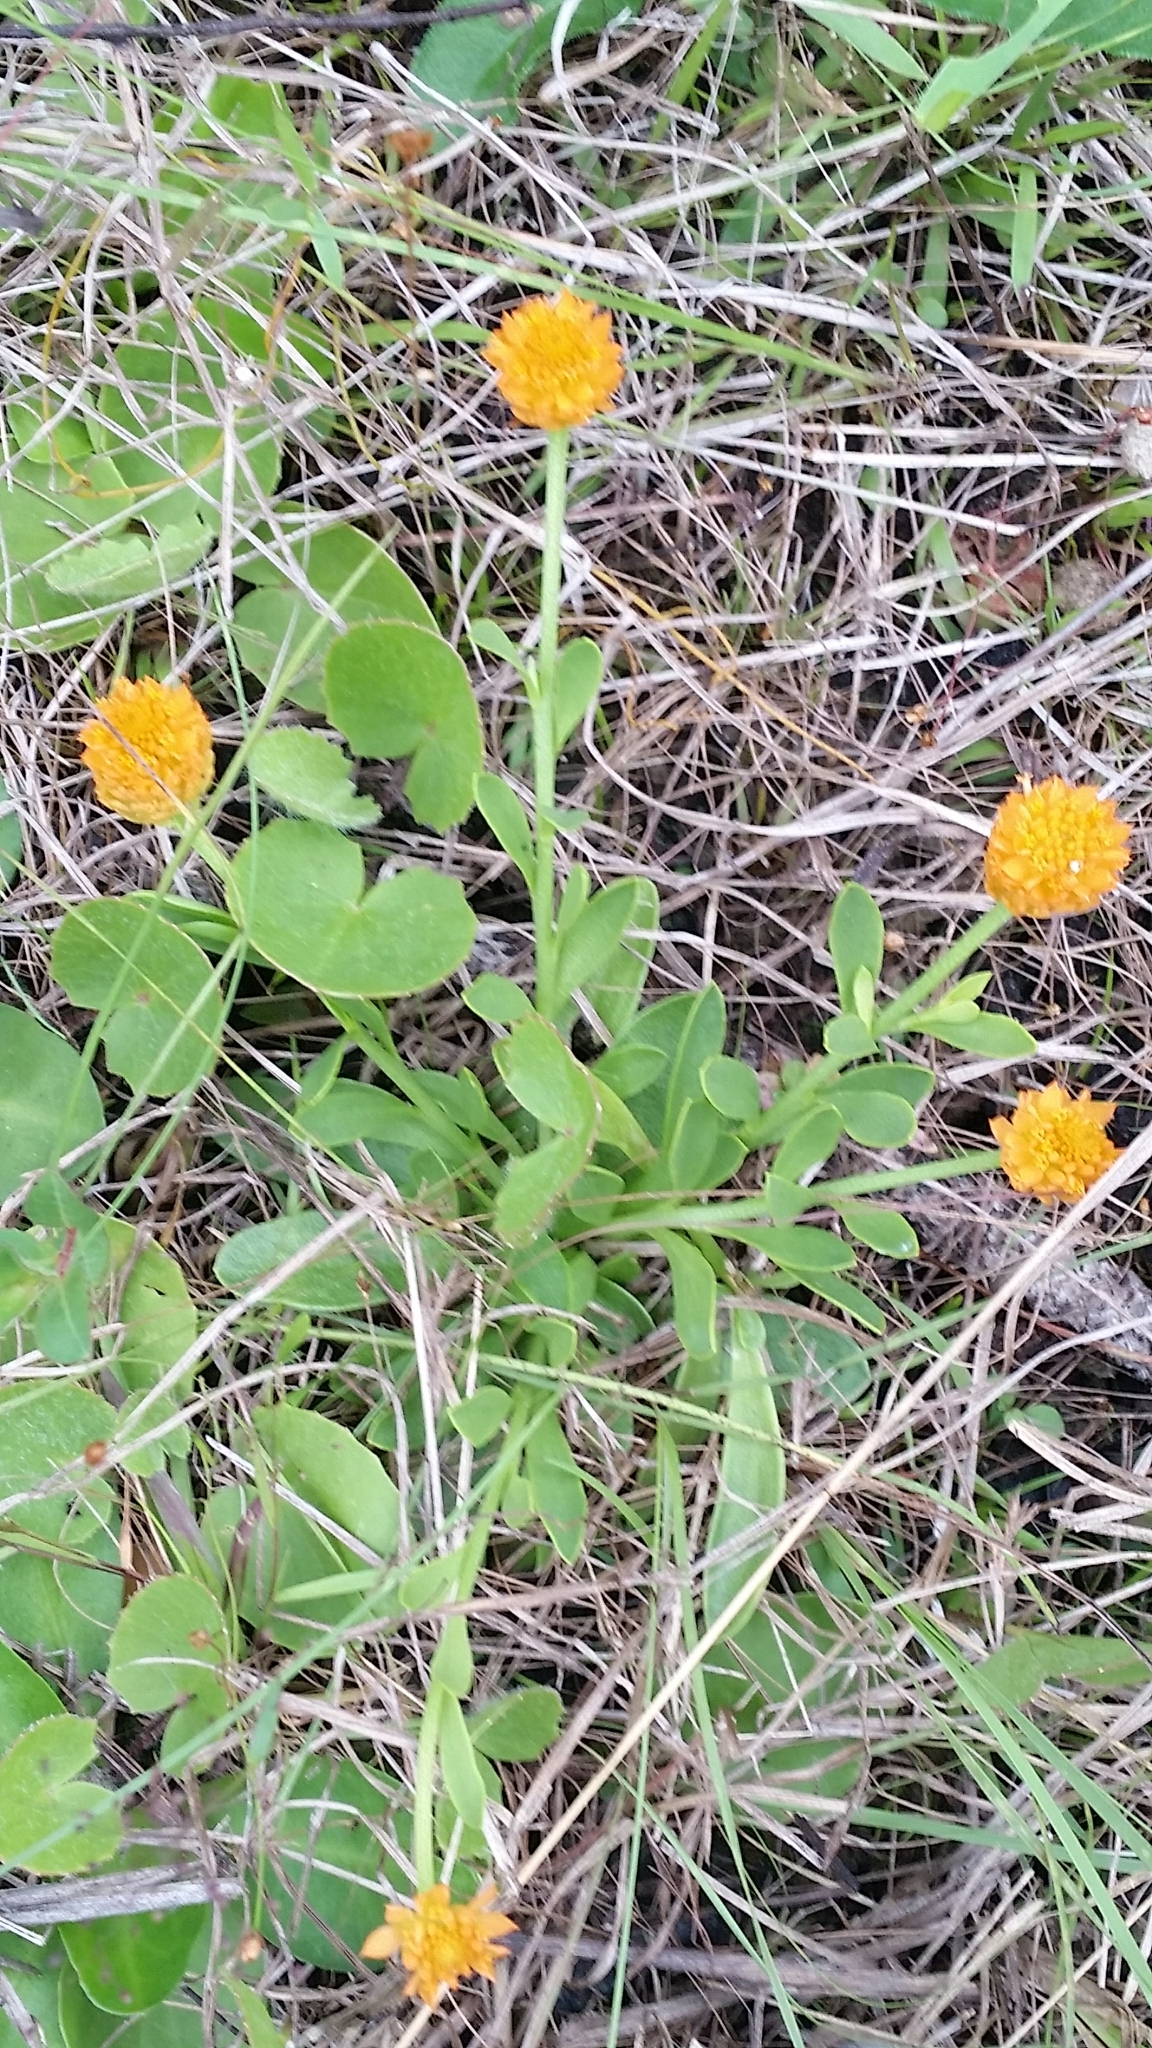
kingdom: Plantae
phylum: Tracheophyta
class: Magnoliopsida
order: Fabales
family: Polygalaceae
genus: Polygala
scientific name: Polygala lutea
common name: Orange milkwort
